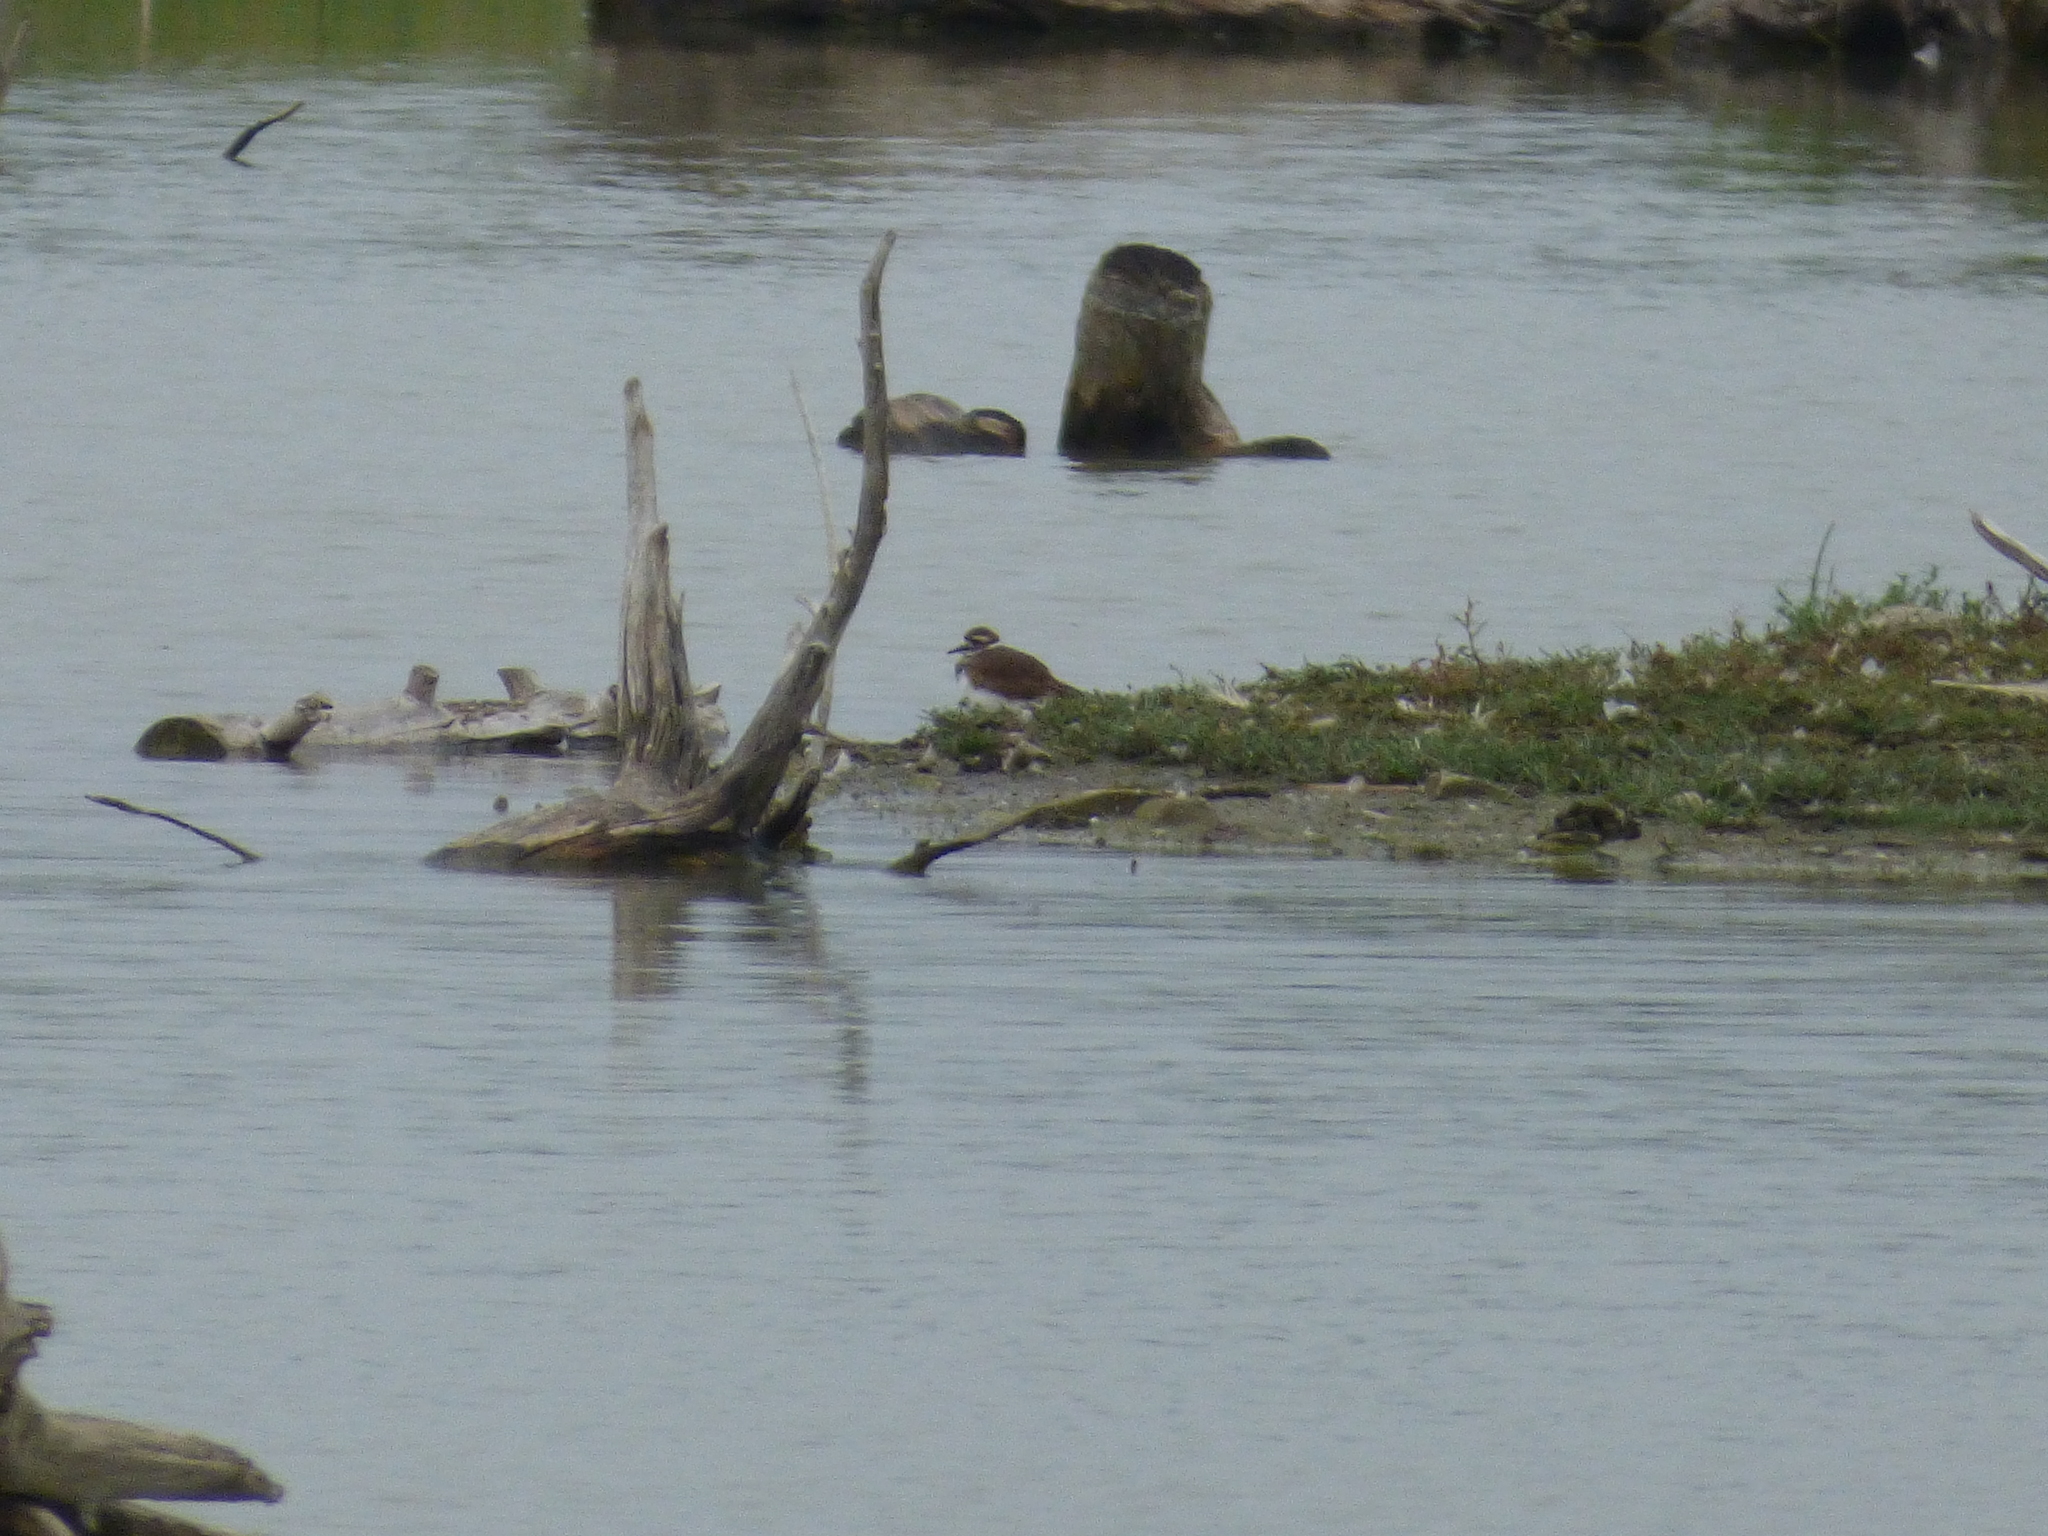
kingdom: Animalia
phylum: Chordata
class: Aves
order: Charadriiformes
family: Charadriidae
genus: Charadrius
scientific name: Charadrius vociferus
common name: Killdeer
